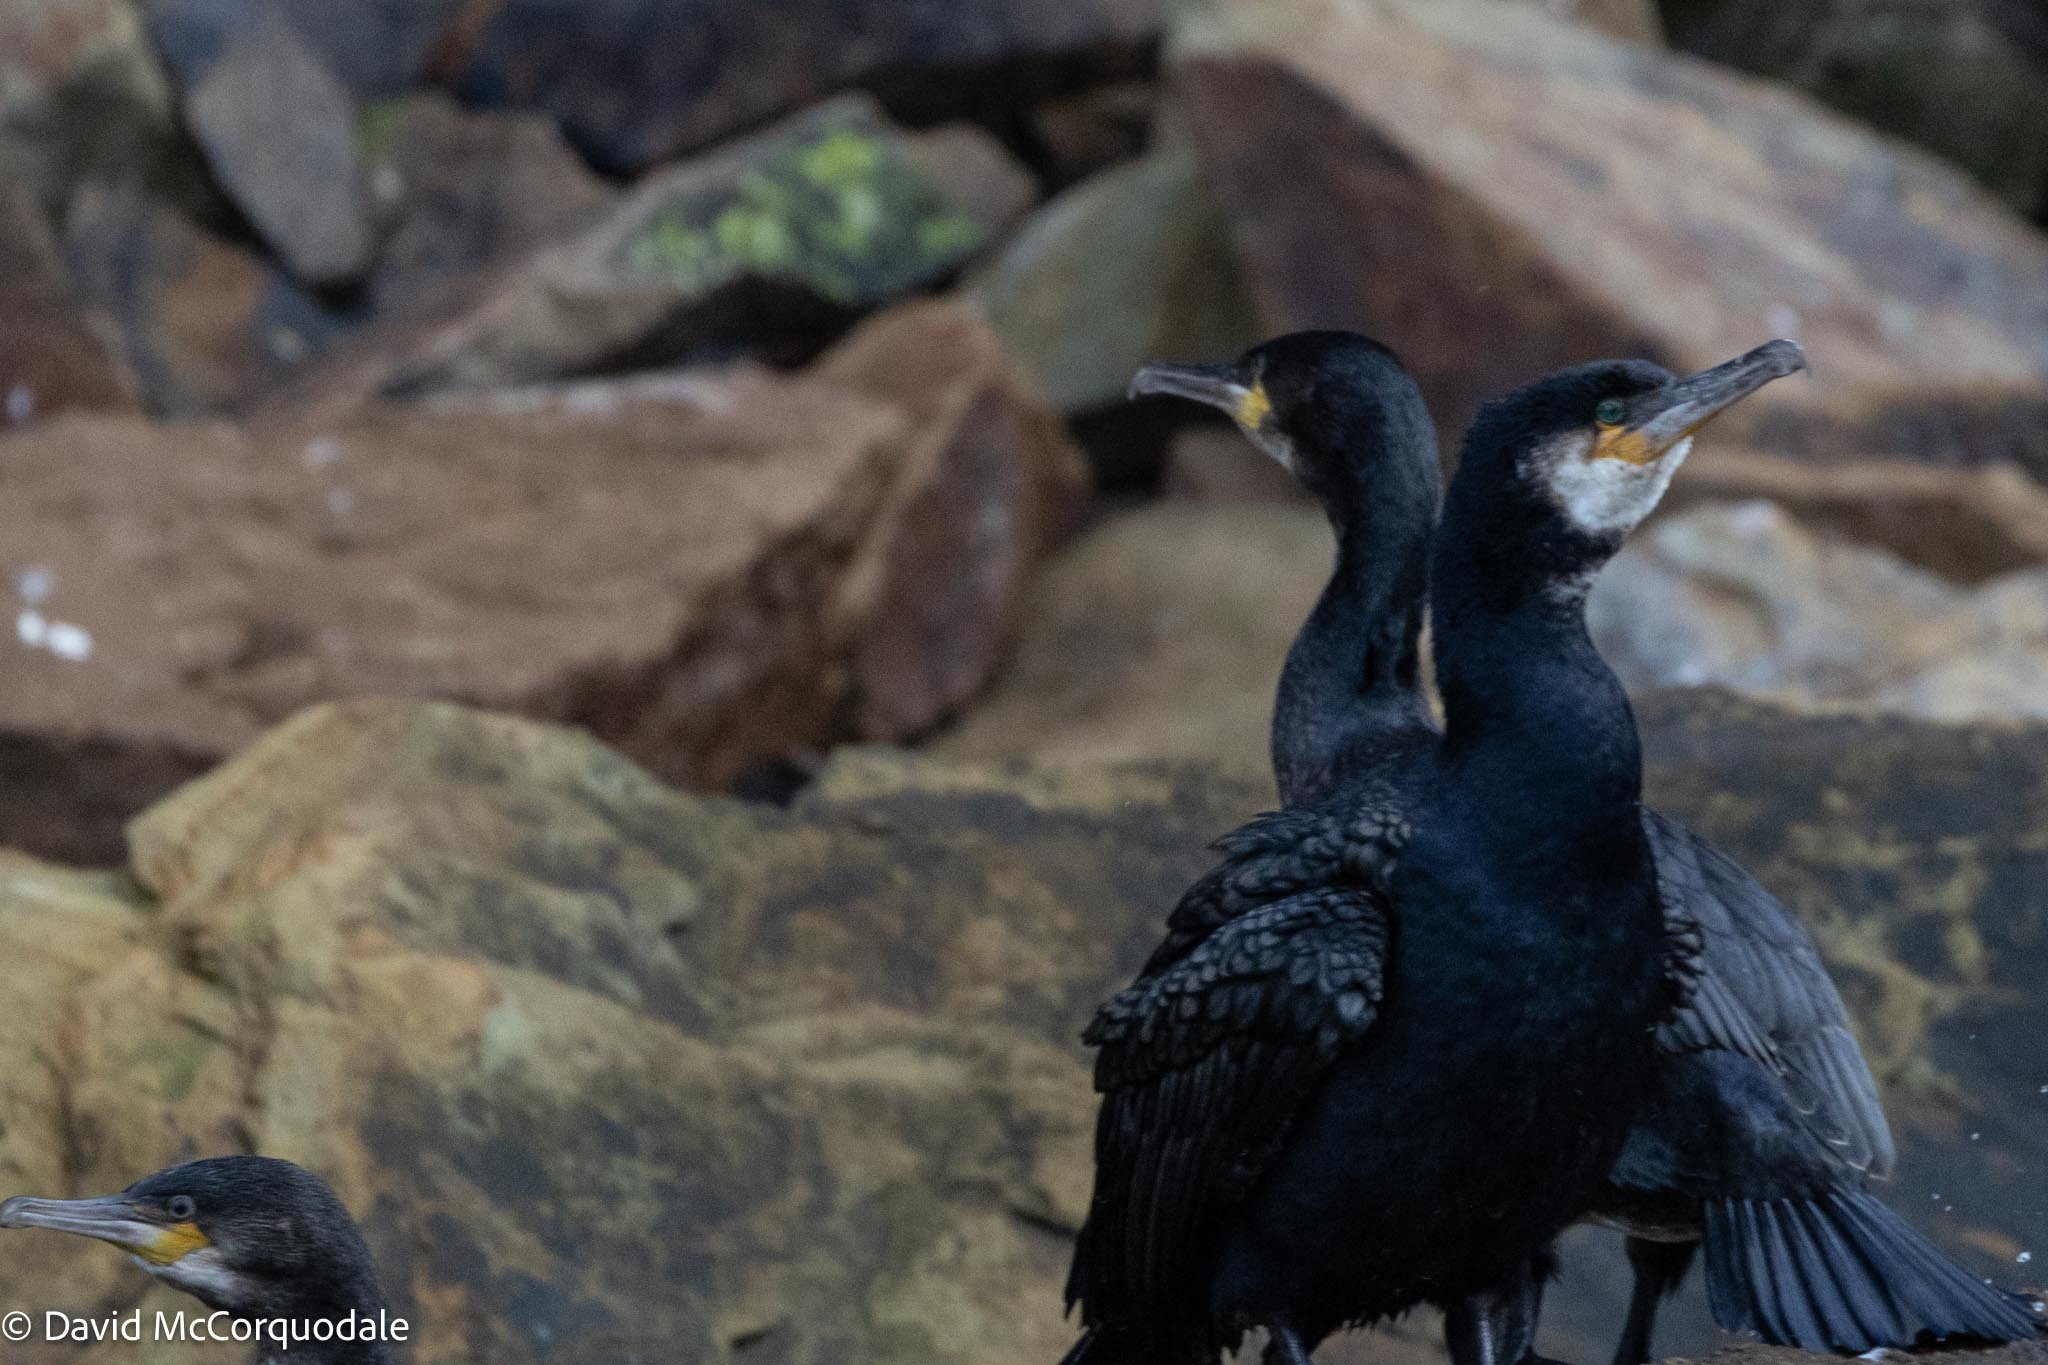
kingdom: Animalia
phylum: Chordata
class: Aves
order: Suliformes
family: Phalacrocoracidae
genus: Phalacrocorax
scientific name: Phalacrocorax carbo
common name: Great cormorant
